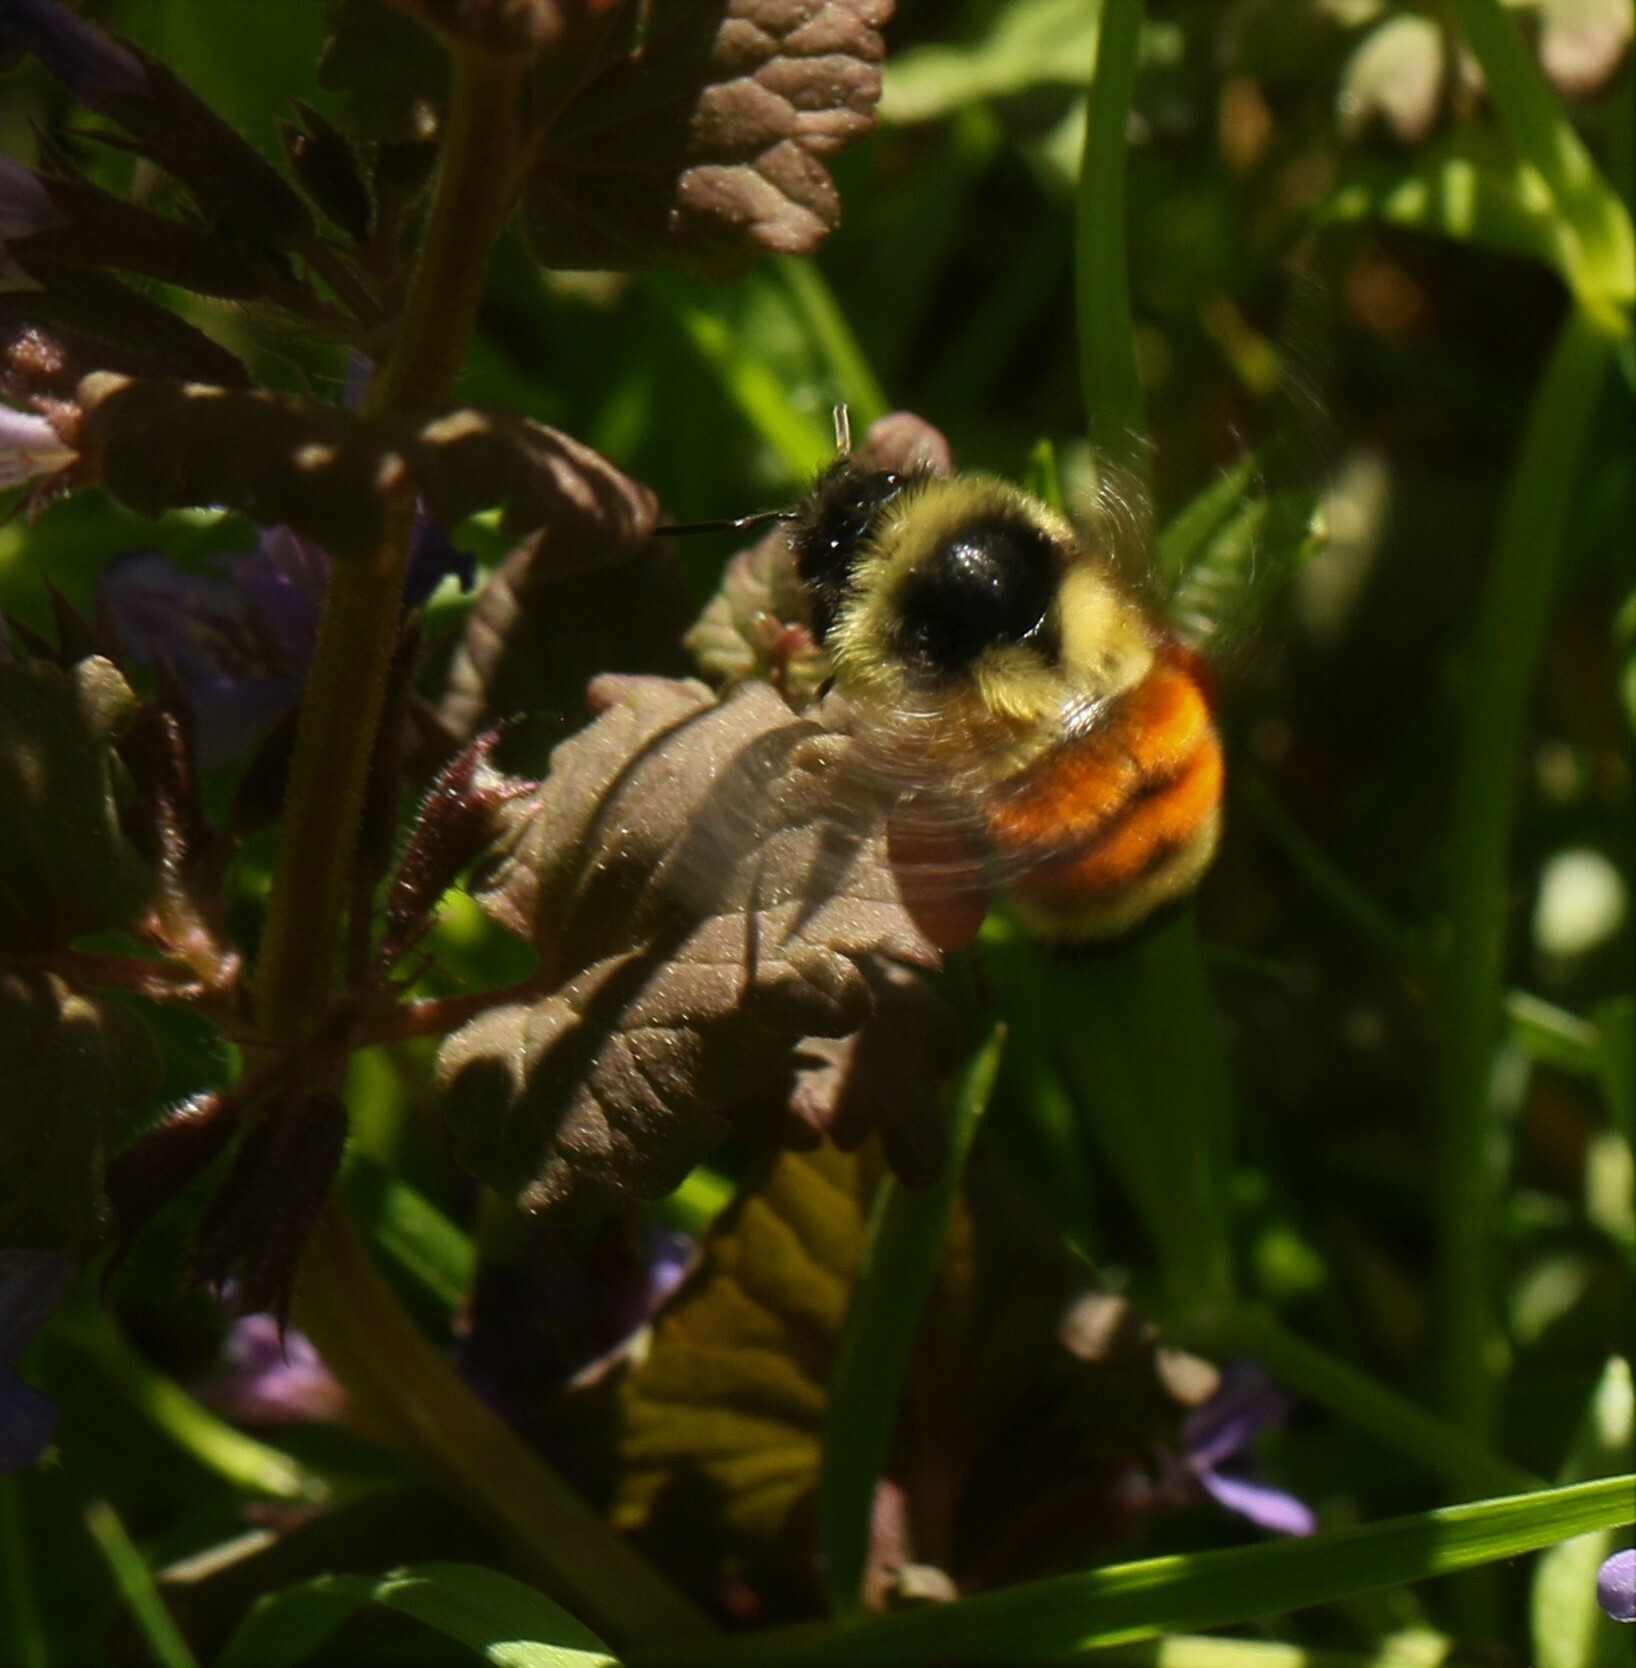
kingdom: Animalia
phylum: Arthropoda
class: Insecta
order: Hymenoptera
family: Apidae
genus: Bombus
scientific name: Bombus ternarius
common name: Tri-colored bumble bee
